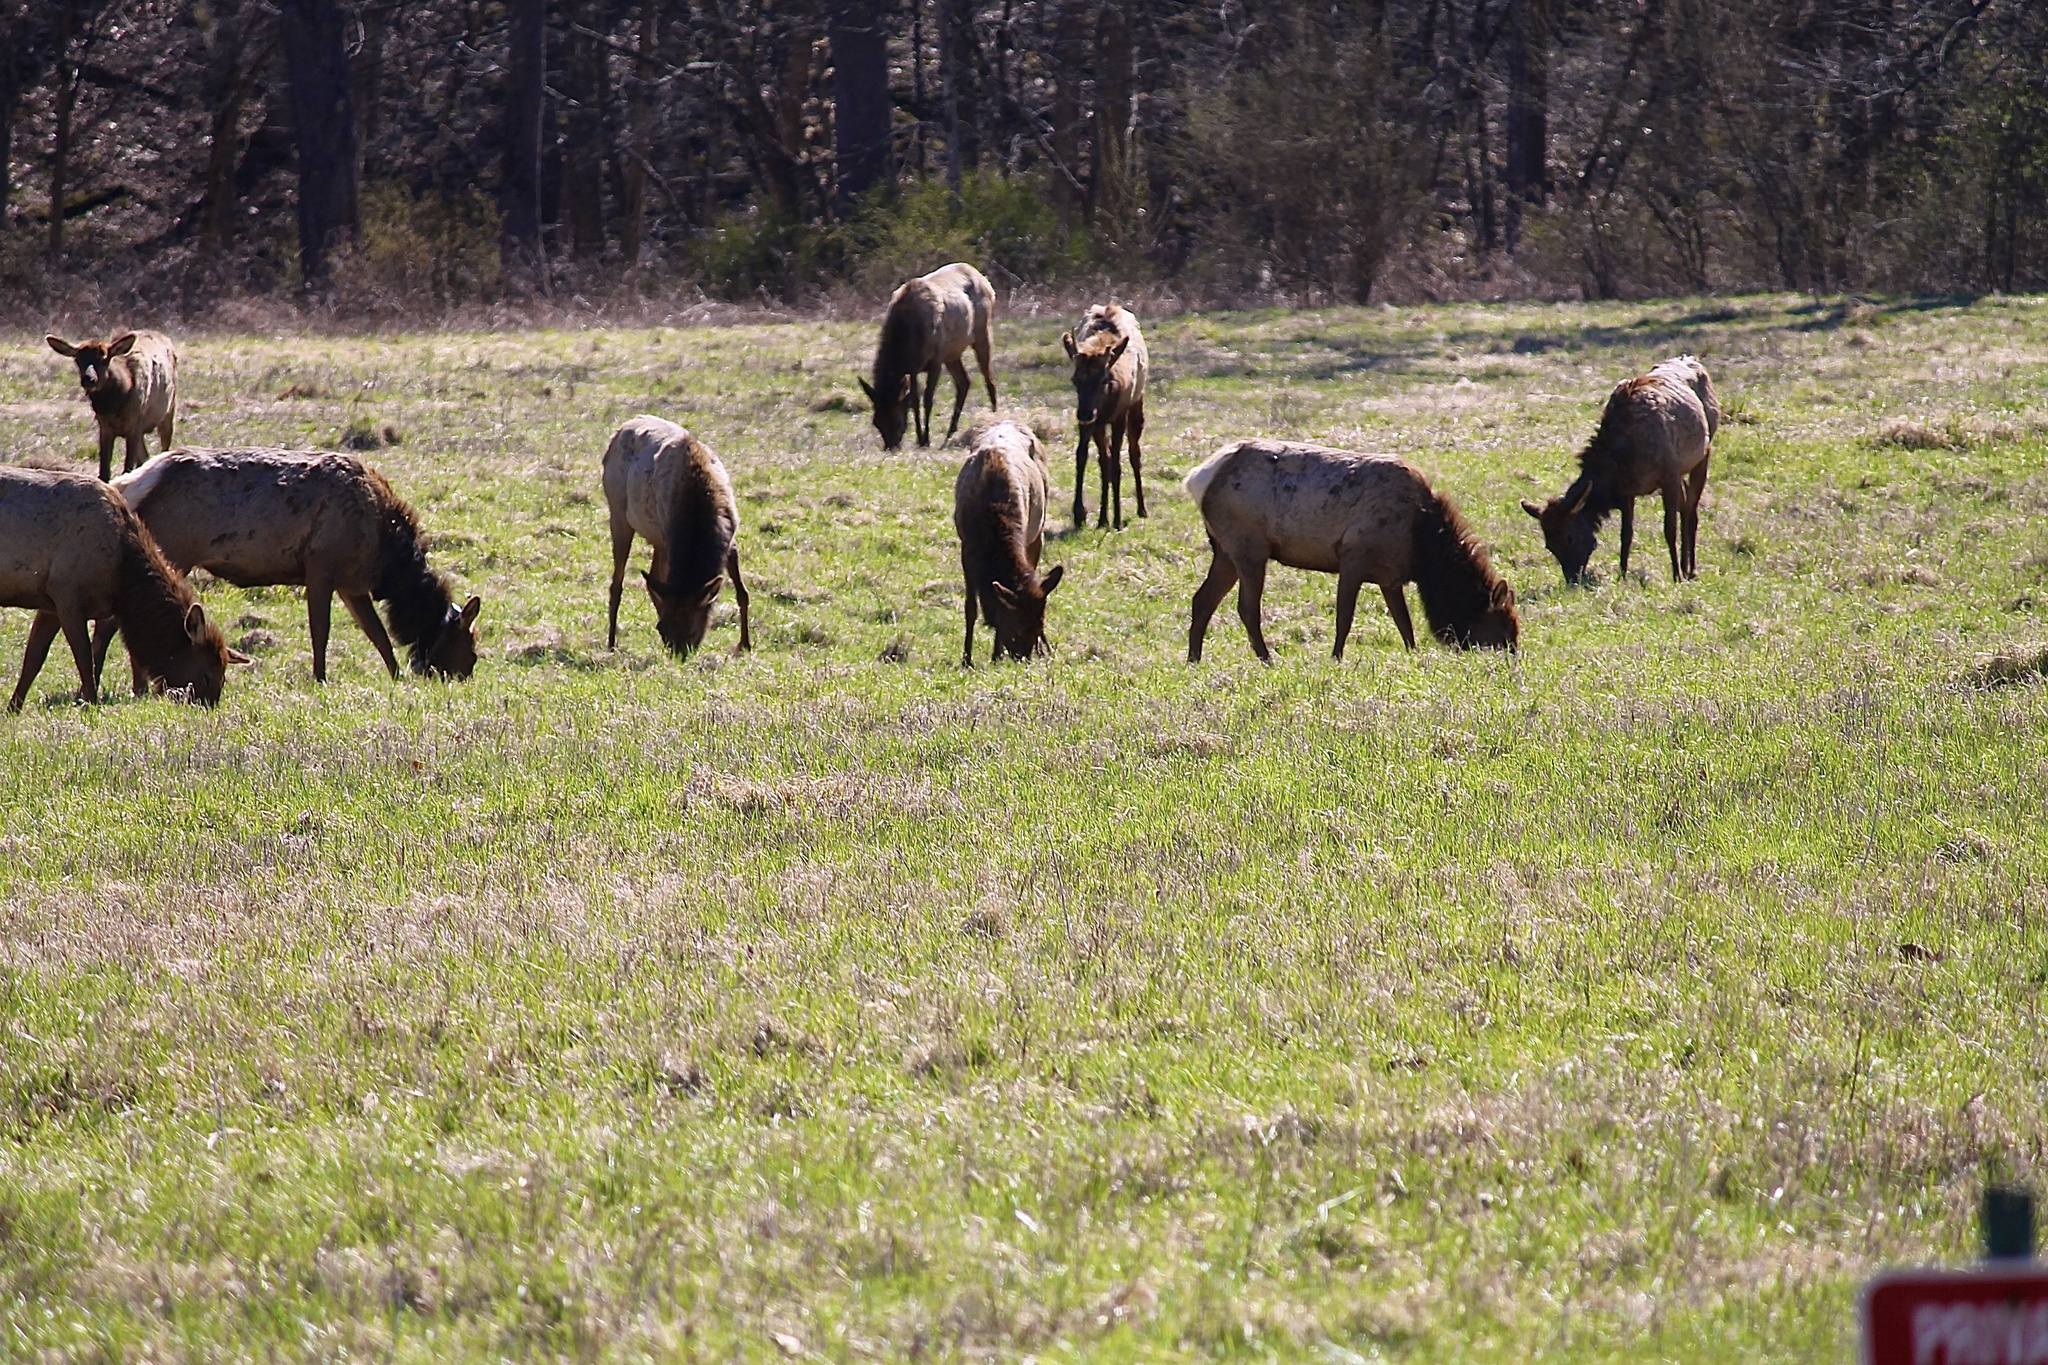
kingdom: Animalia
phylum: Chordata
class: Mammalia
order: Artiodactyla
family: Cervidae
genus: Cervus
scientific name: Cervus elaphus
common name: Red deer
